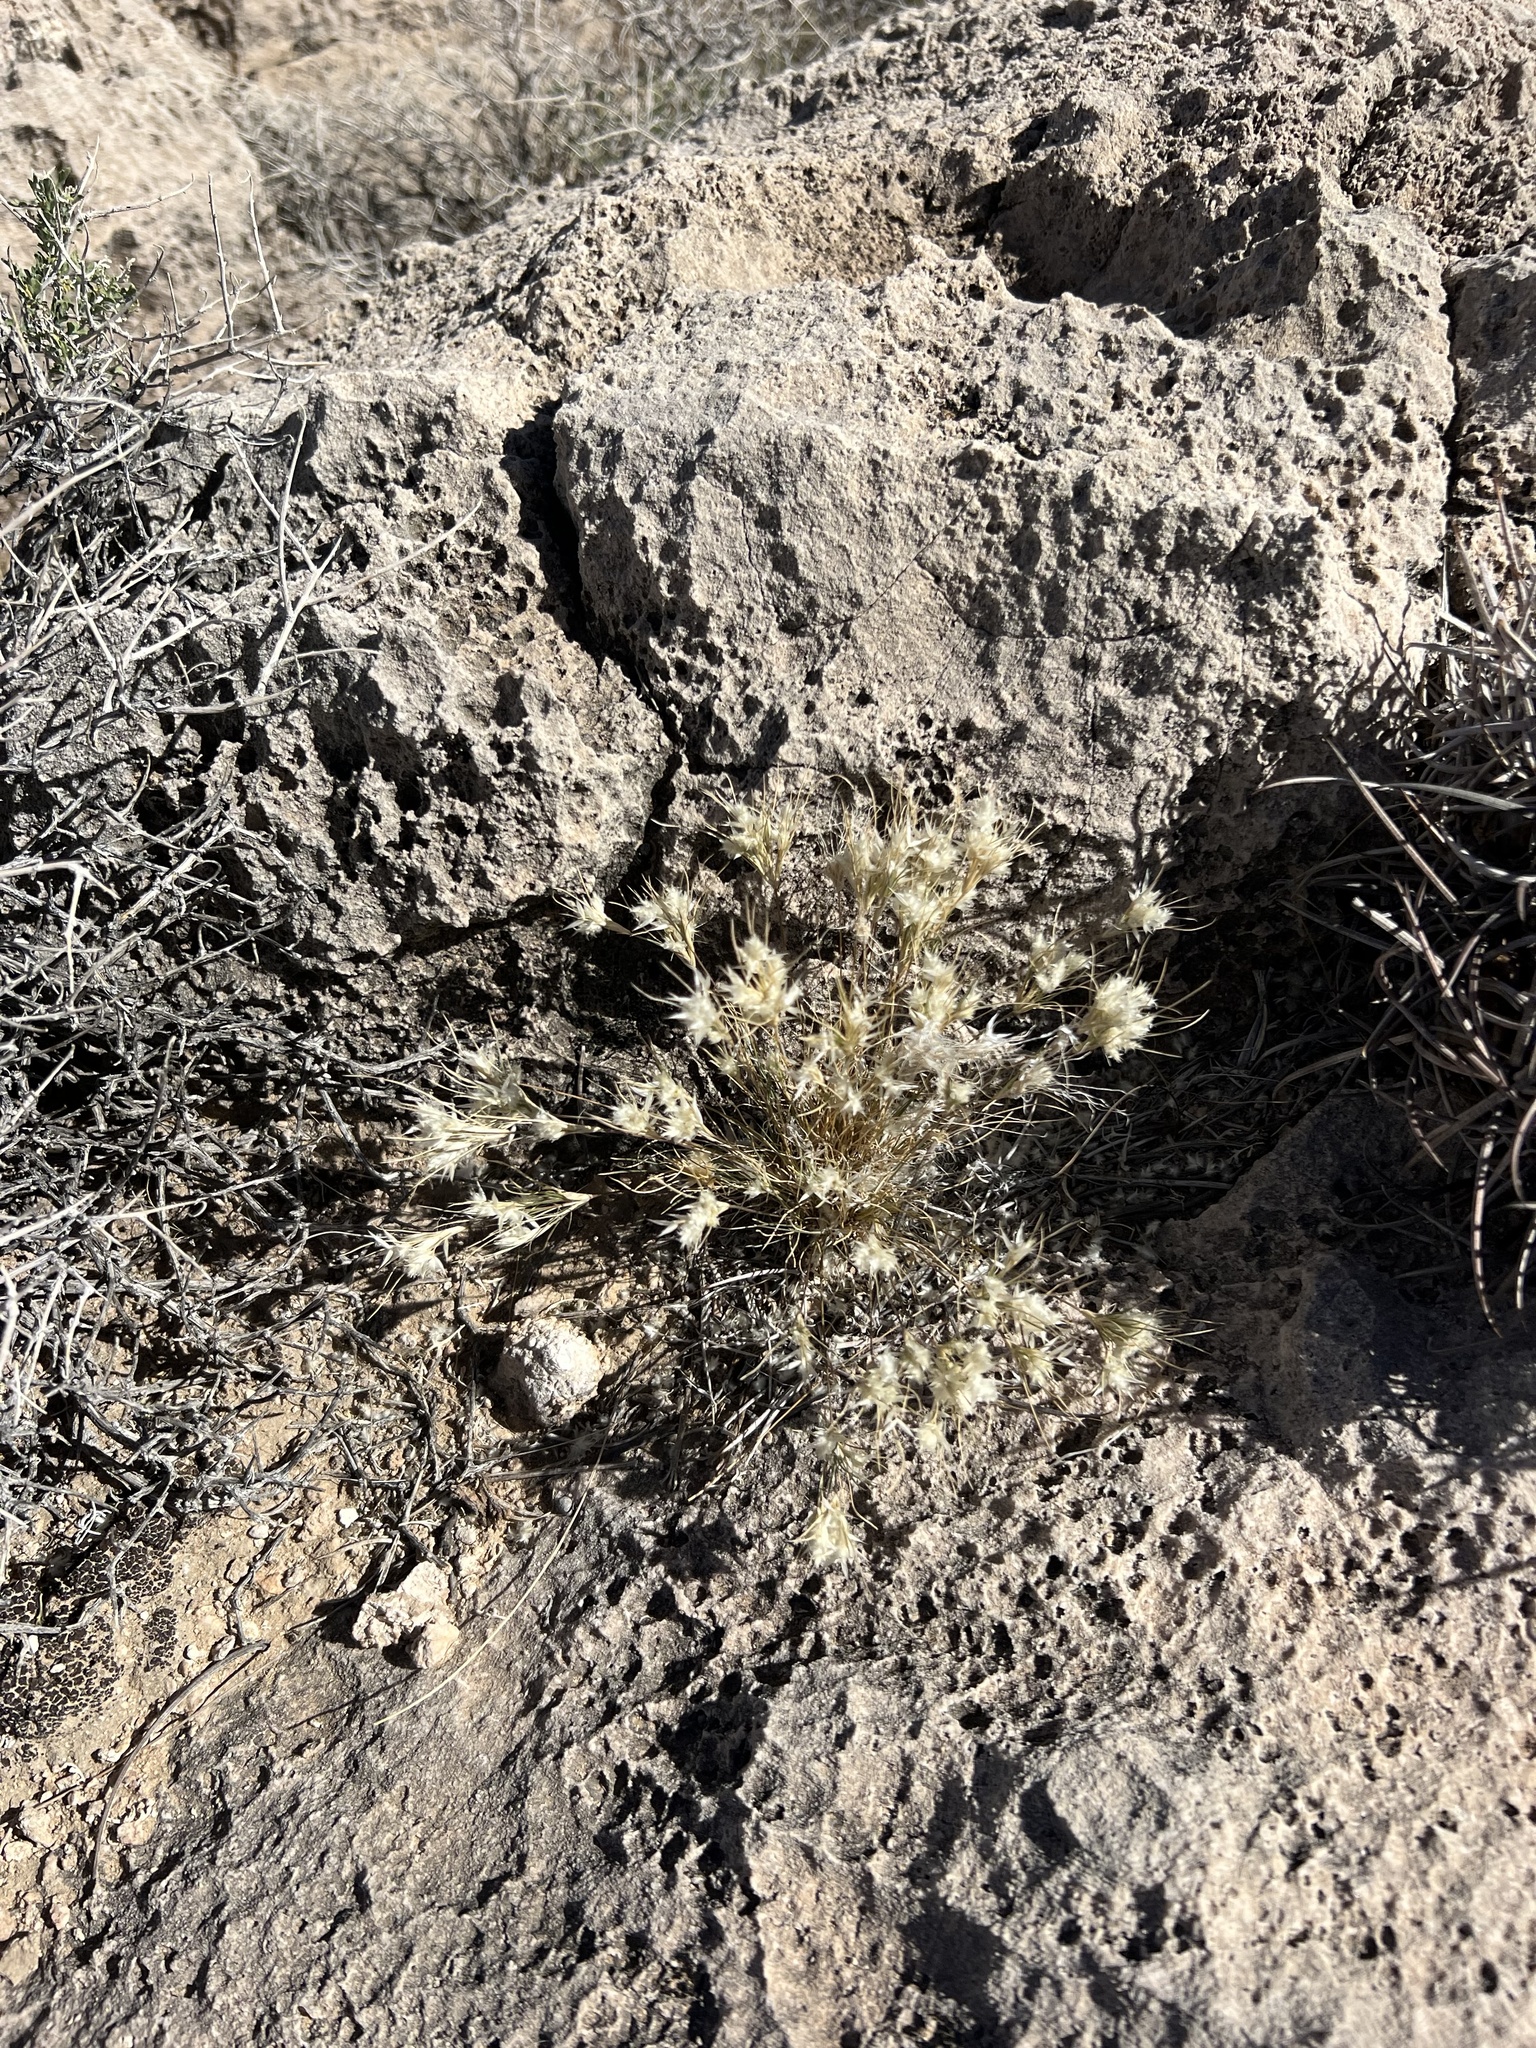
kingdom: Plantae
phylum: Tracheophyta
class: Liliopsida
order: Poales
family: Poaceae
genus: Dasyochloa
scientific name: Dasyochloa pulchella
